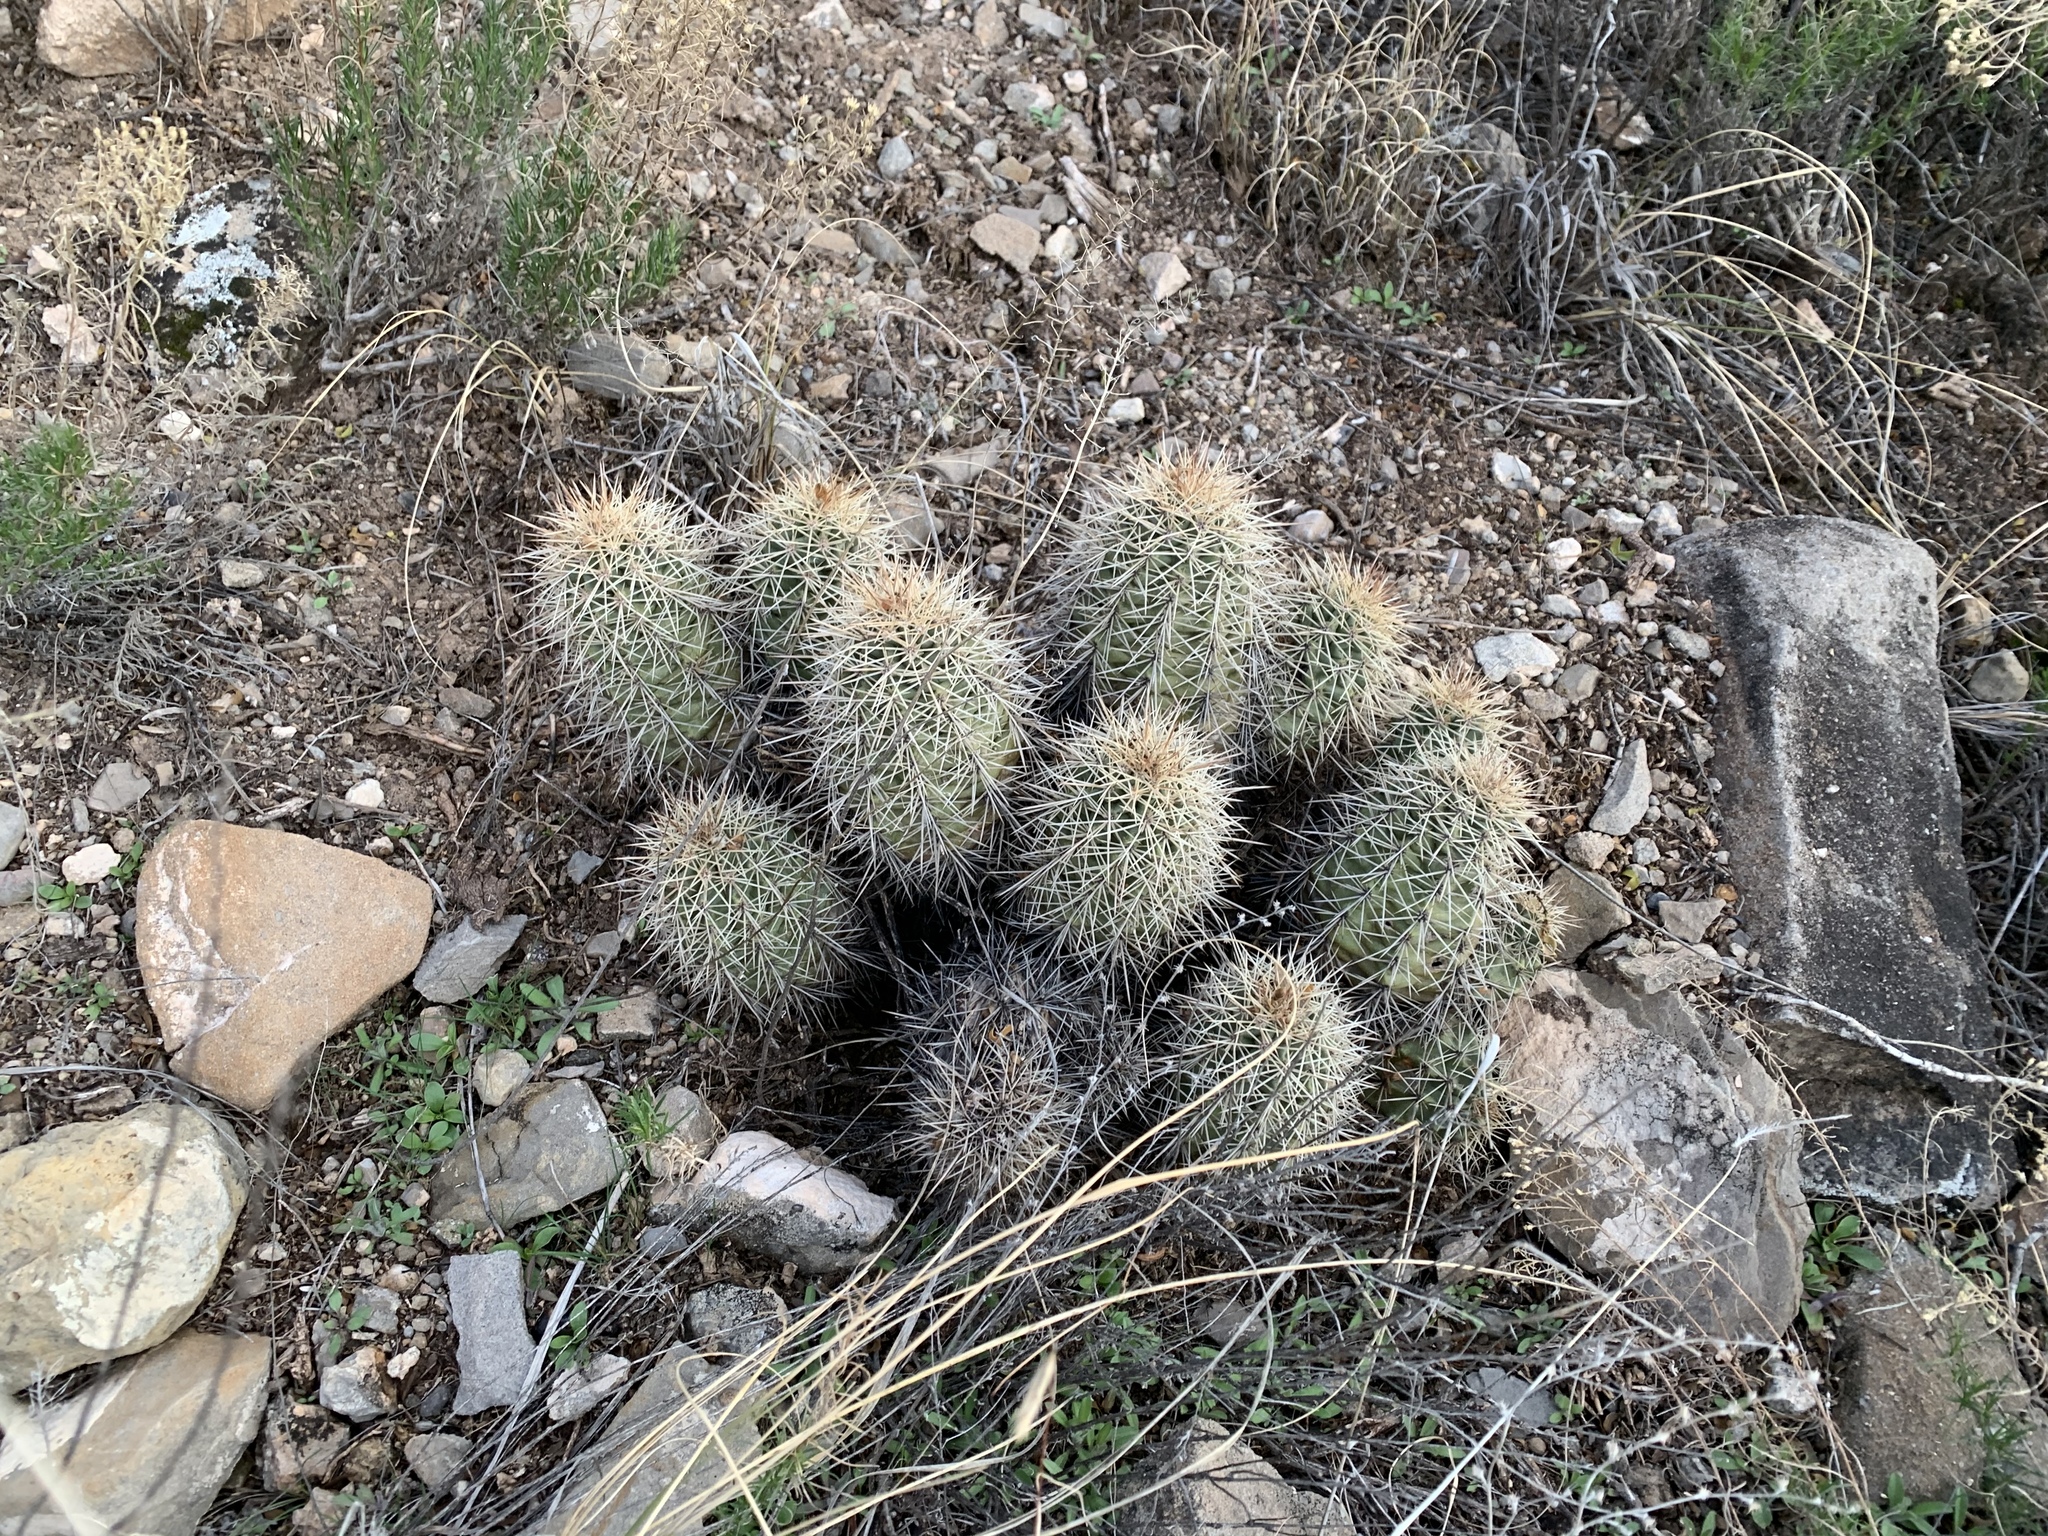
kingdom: Plantae
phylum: Tracheophyta
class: Magnoliopsida
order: Caryophyllales
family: Cactaceae
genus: Echinocereus
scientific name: Echinocereus coccineus
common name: Scarlet hedgehog cactus
